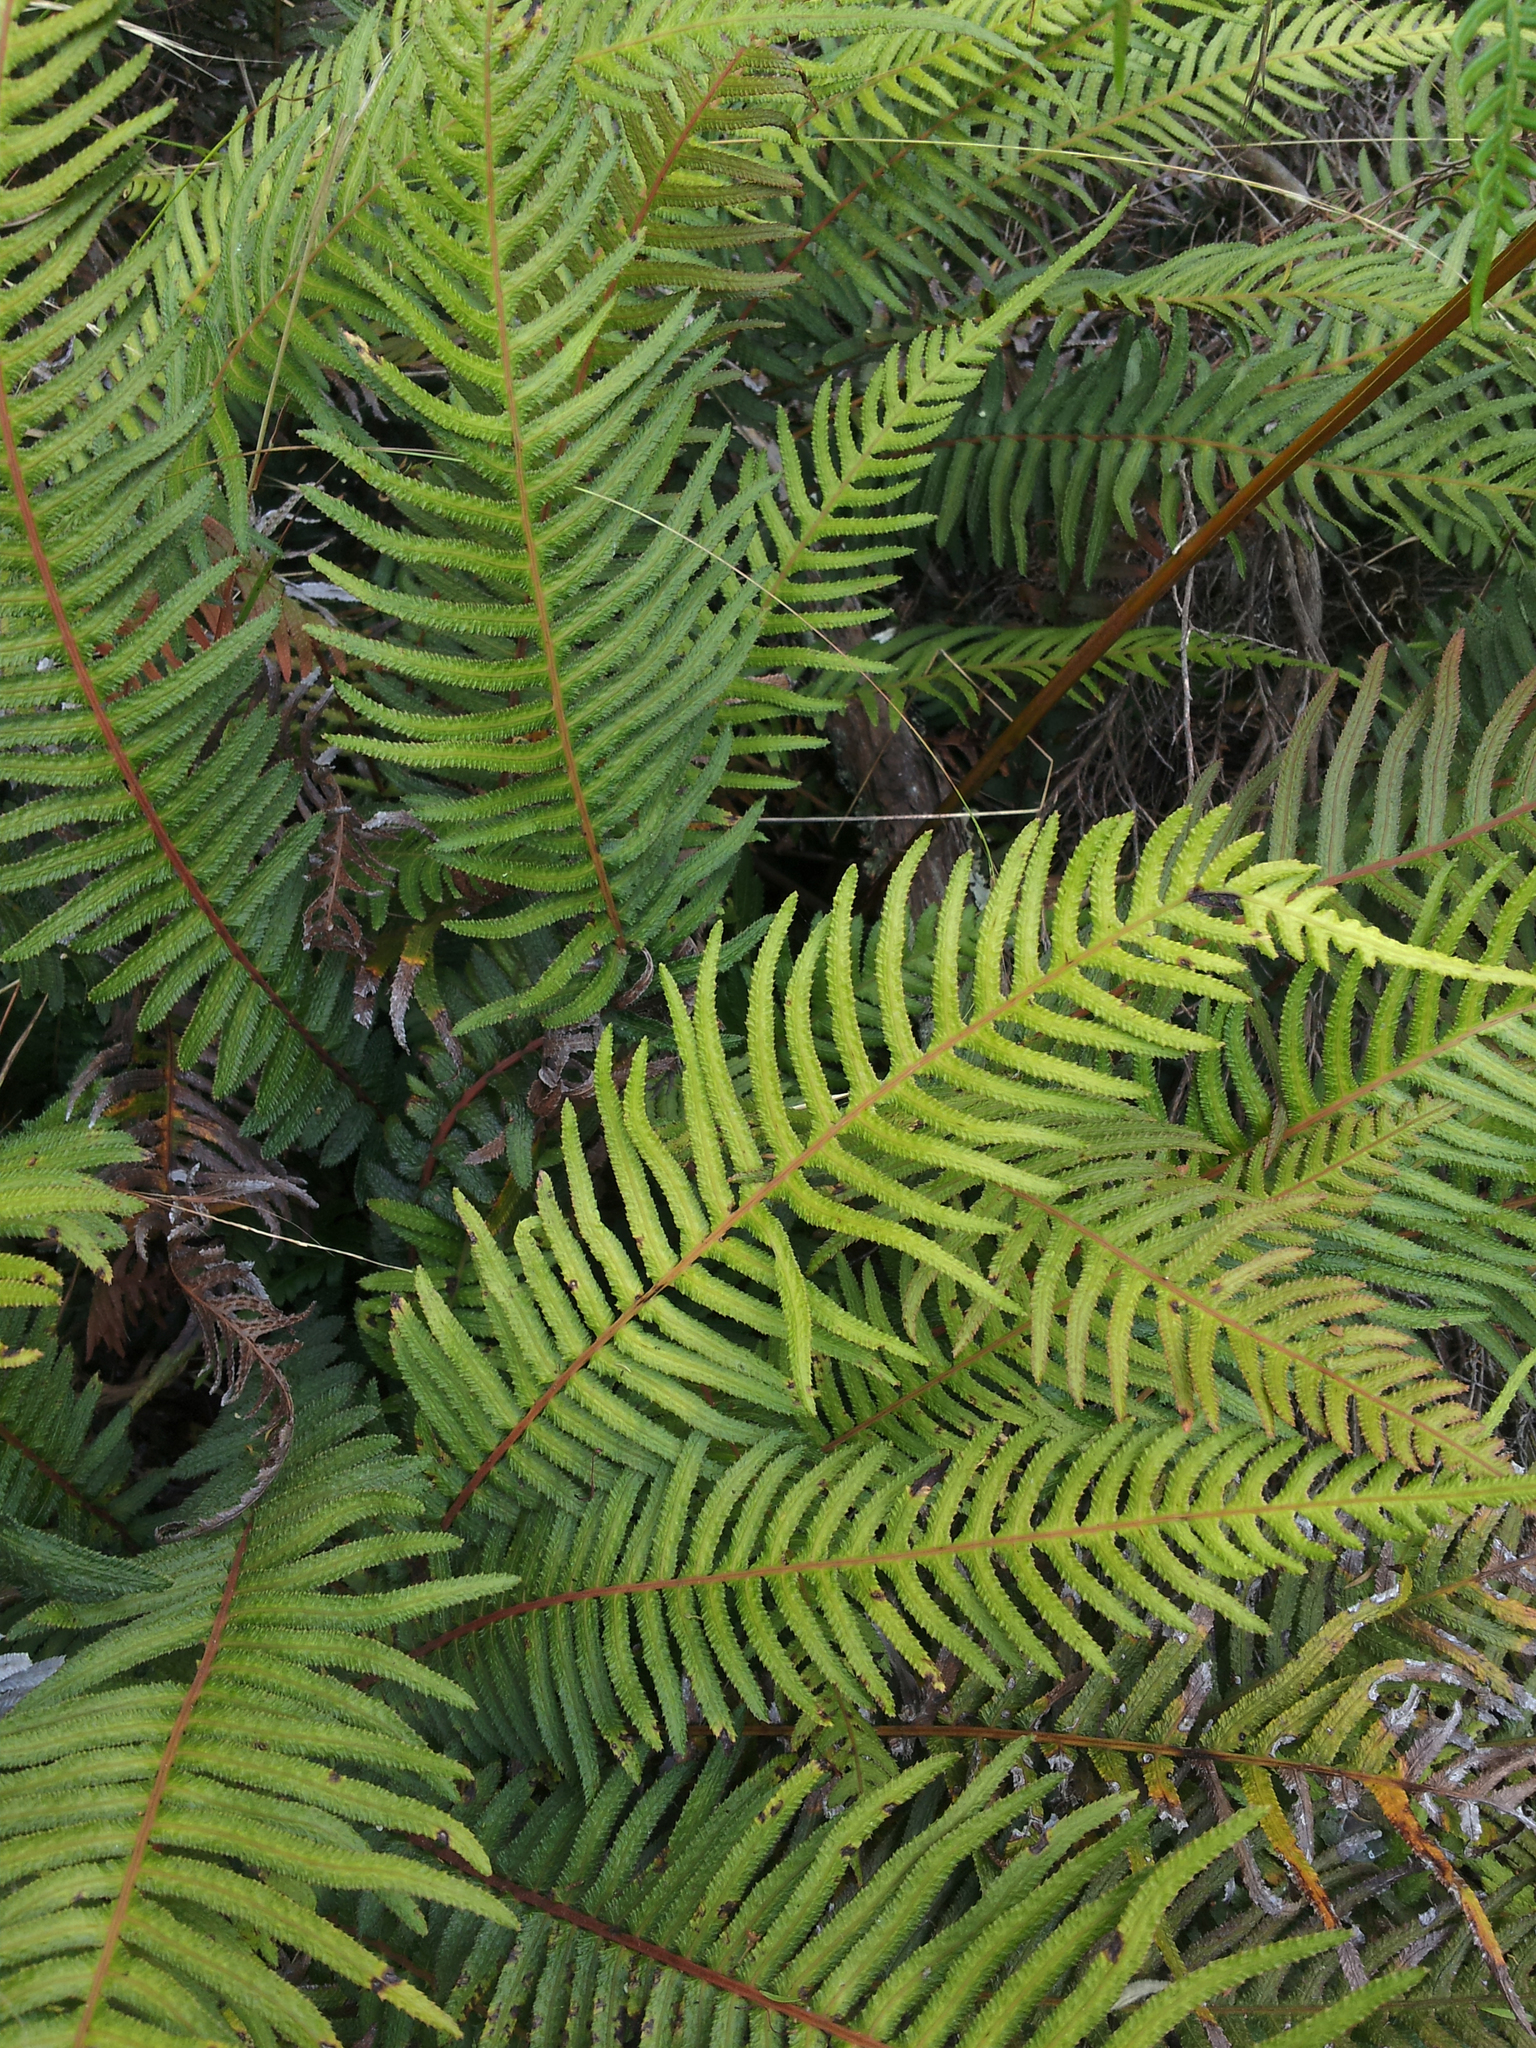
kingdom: Plantae
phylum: Tracheophyta
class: Polypodiopsida
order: Polypodiales
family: Blechnaceae
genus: Doodia
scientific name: Doodia australis
